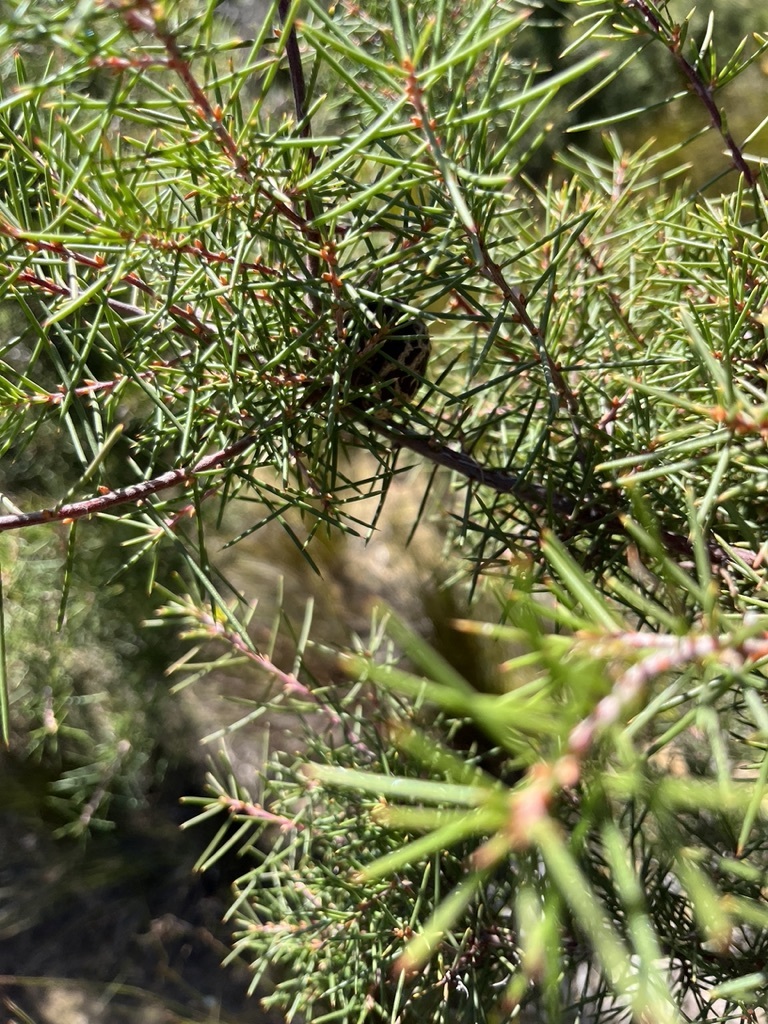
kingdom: Plantae
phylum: Tracheophyta
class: Magnoliopsida
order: Proteales
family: Proteaceae
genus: Hakea
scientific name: Hakea sericea
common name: Needle bush
